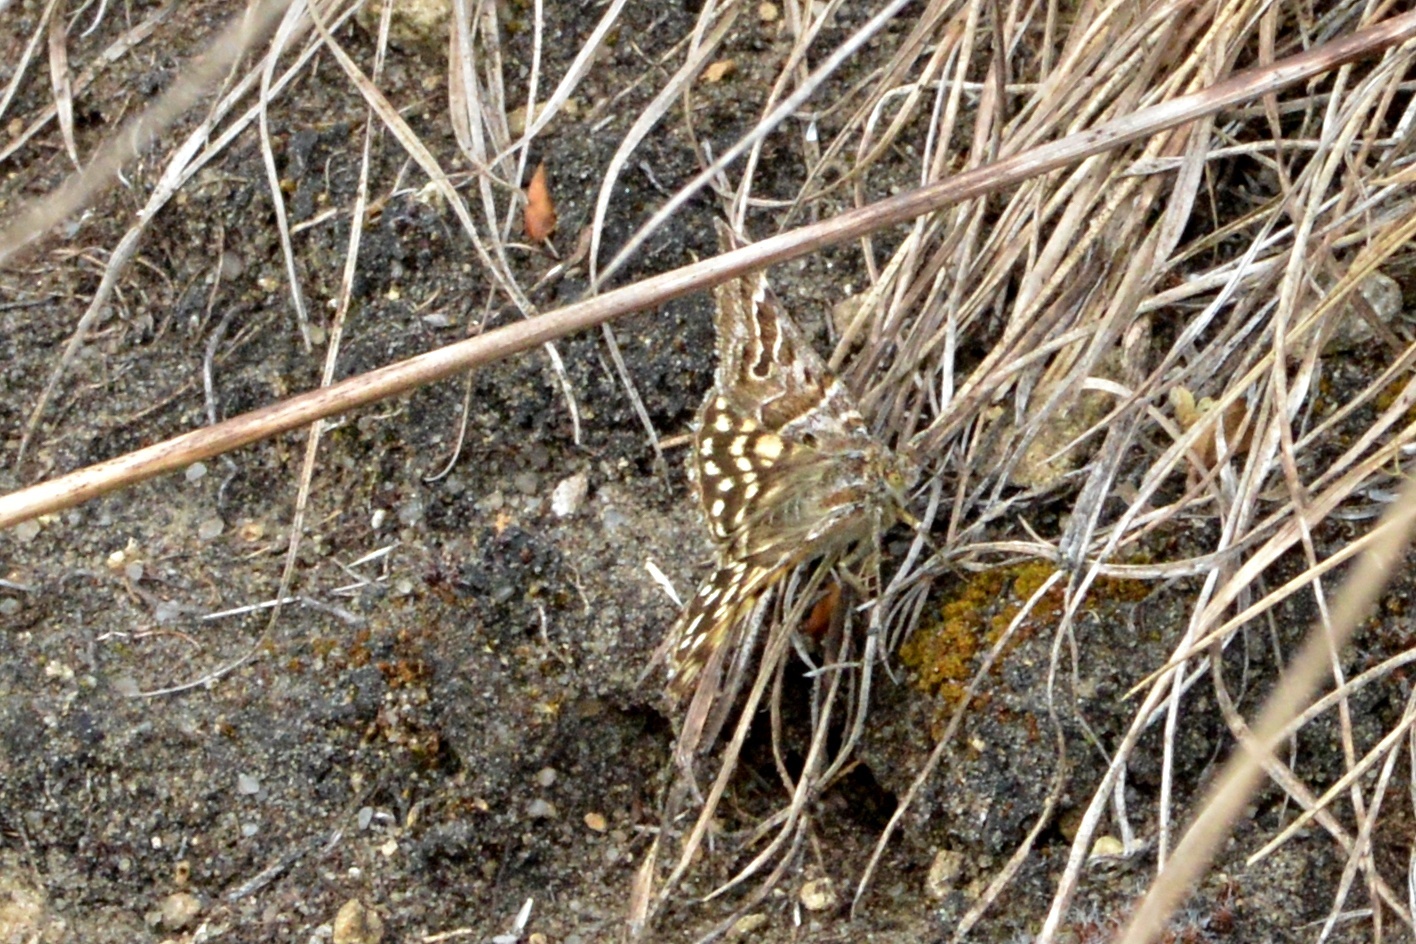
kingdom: Animalia
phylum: Arthropoda
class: Insecta
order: Lepidoptera
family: Erebidae
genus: Callistege
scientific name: Callistege mi
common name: Mother shipton
